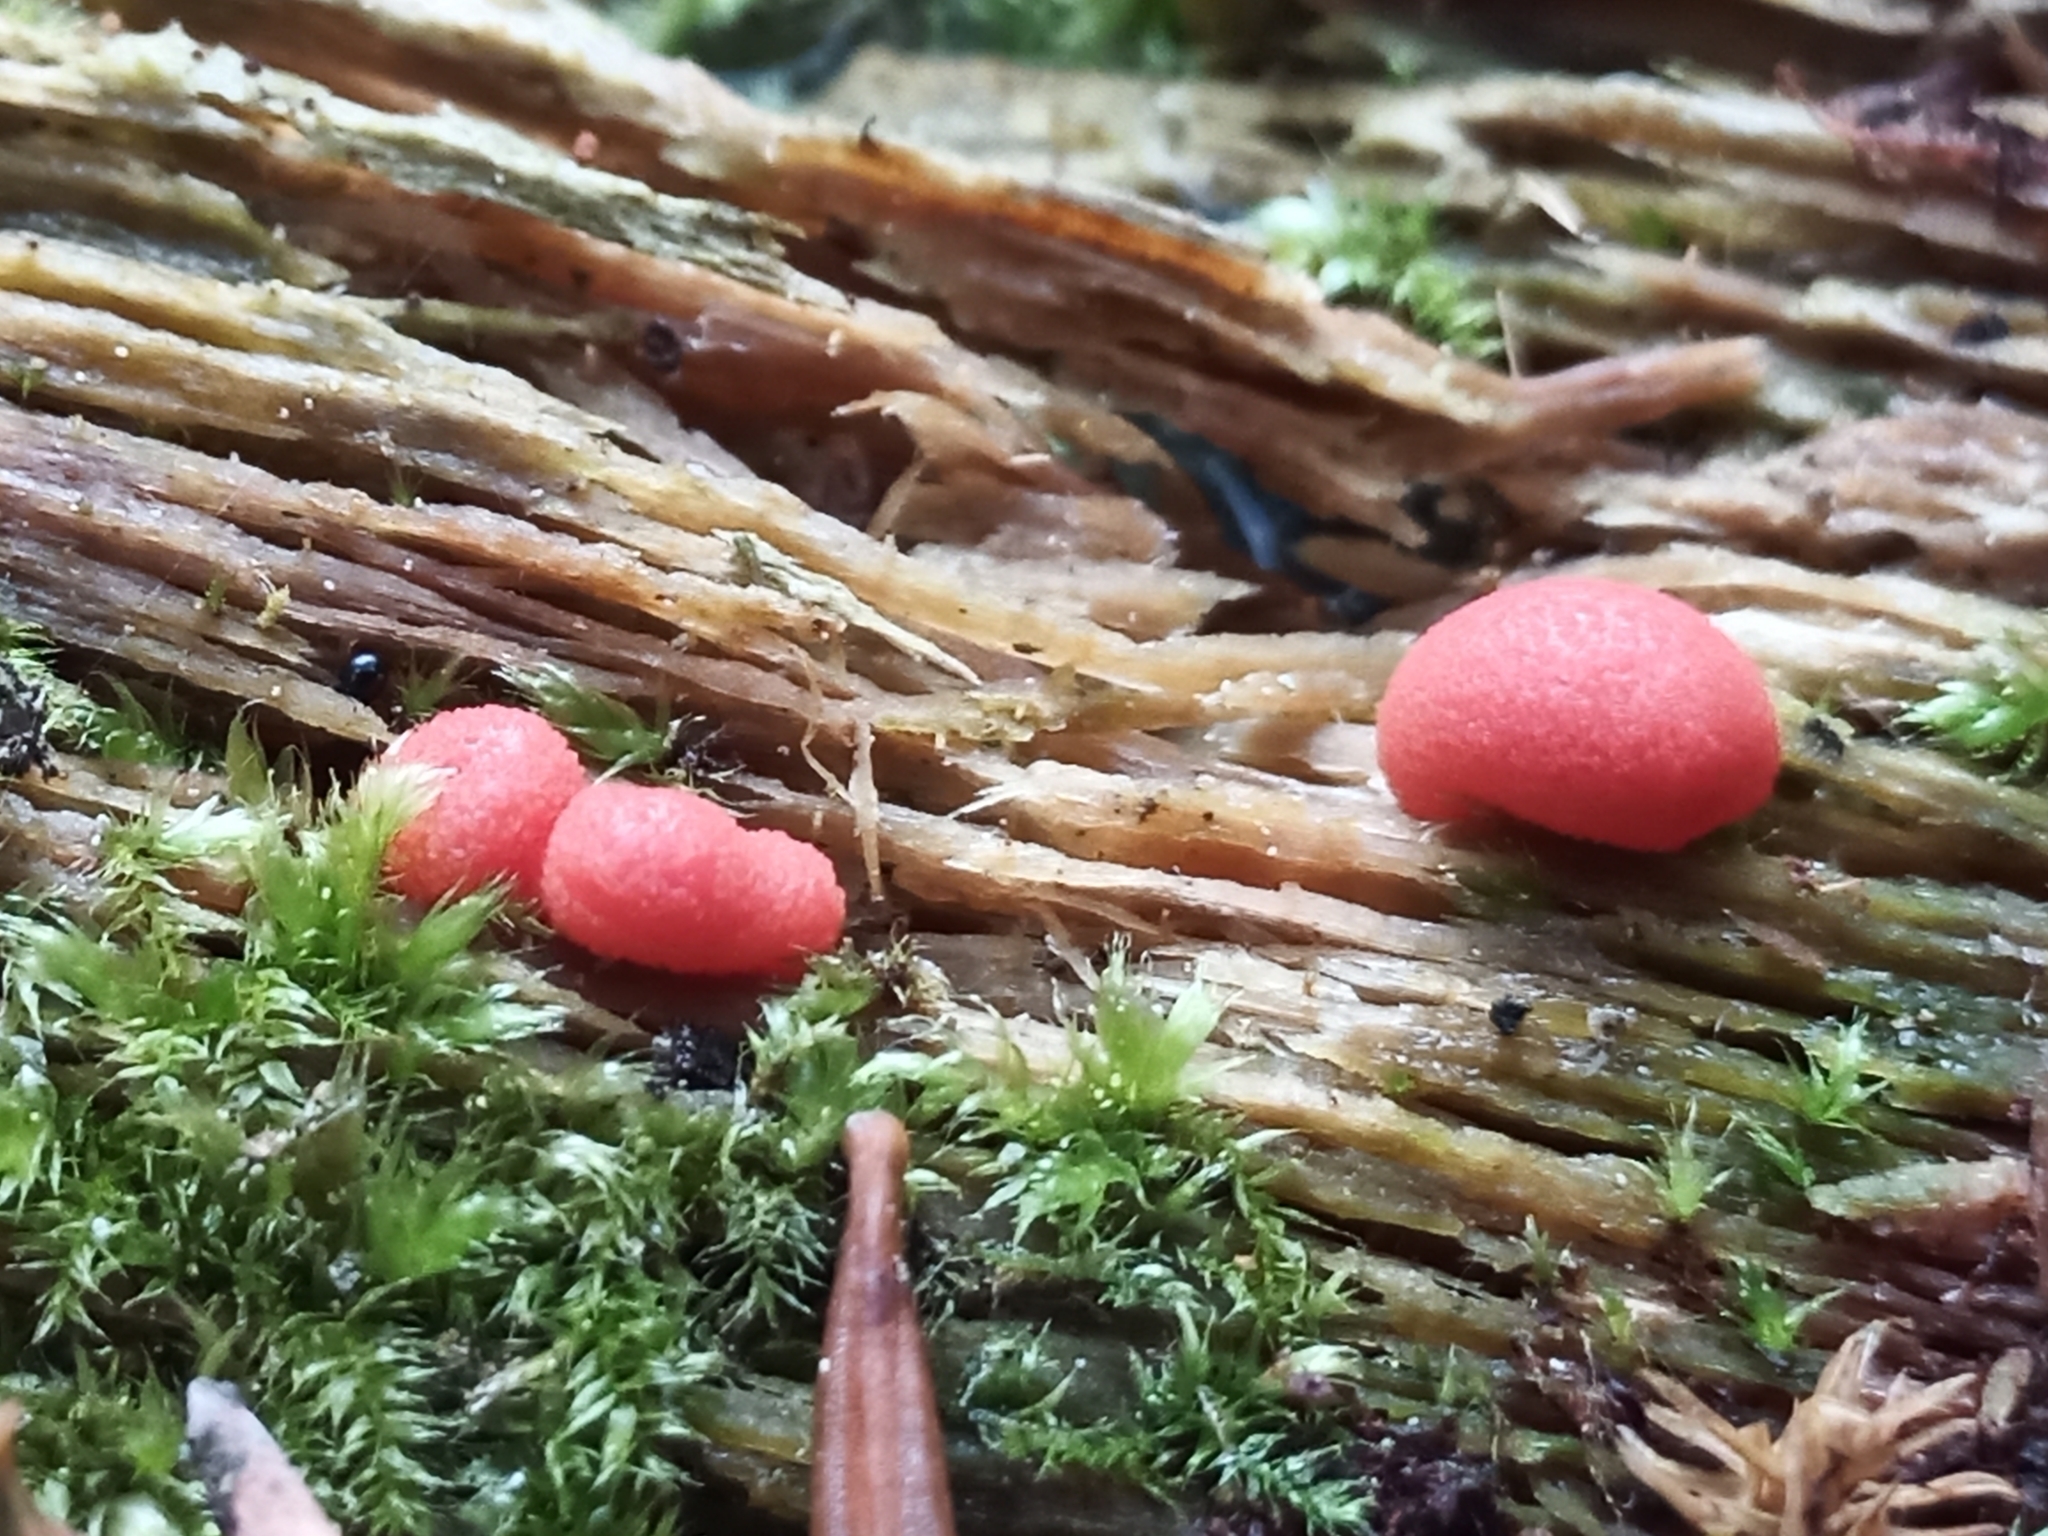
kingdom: Protozoa
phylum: Mycetozoa
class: Myxomycetes
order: Cribrariales
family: Tubiferaceae
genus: Lycogala
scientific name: Lycogala epidendrum
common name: Wolf's milk
